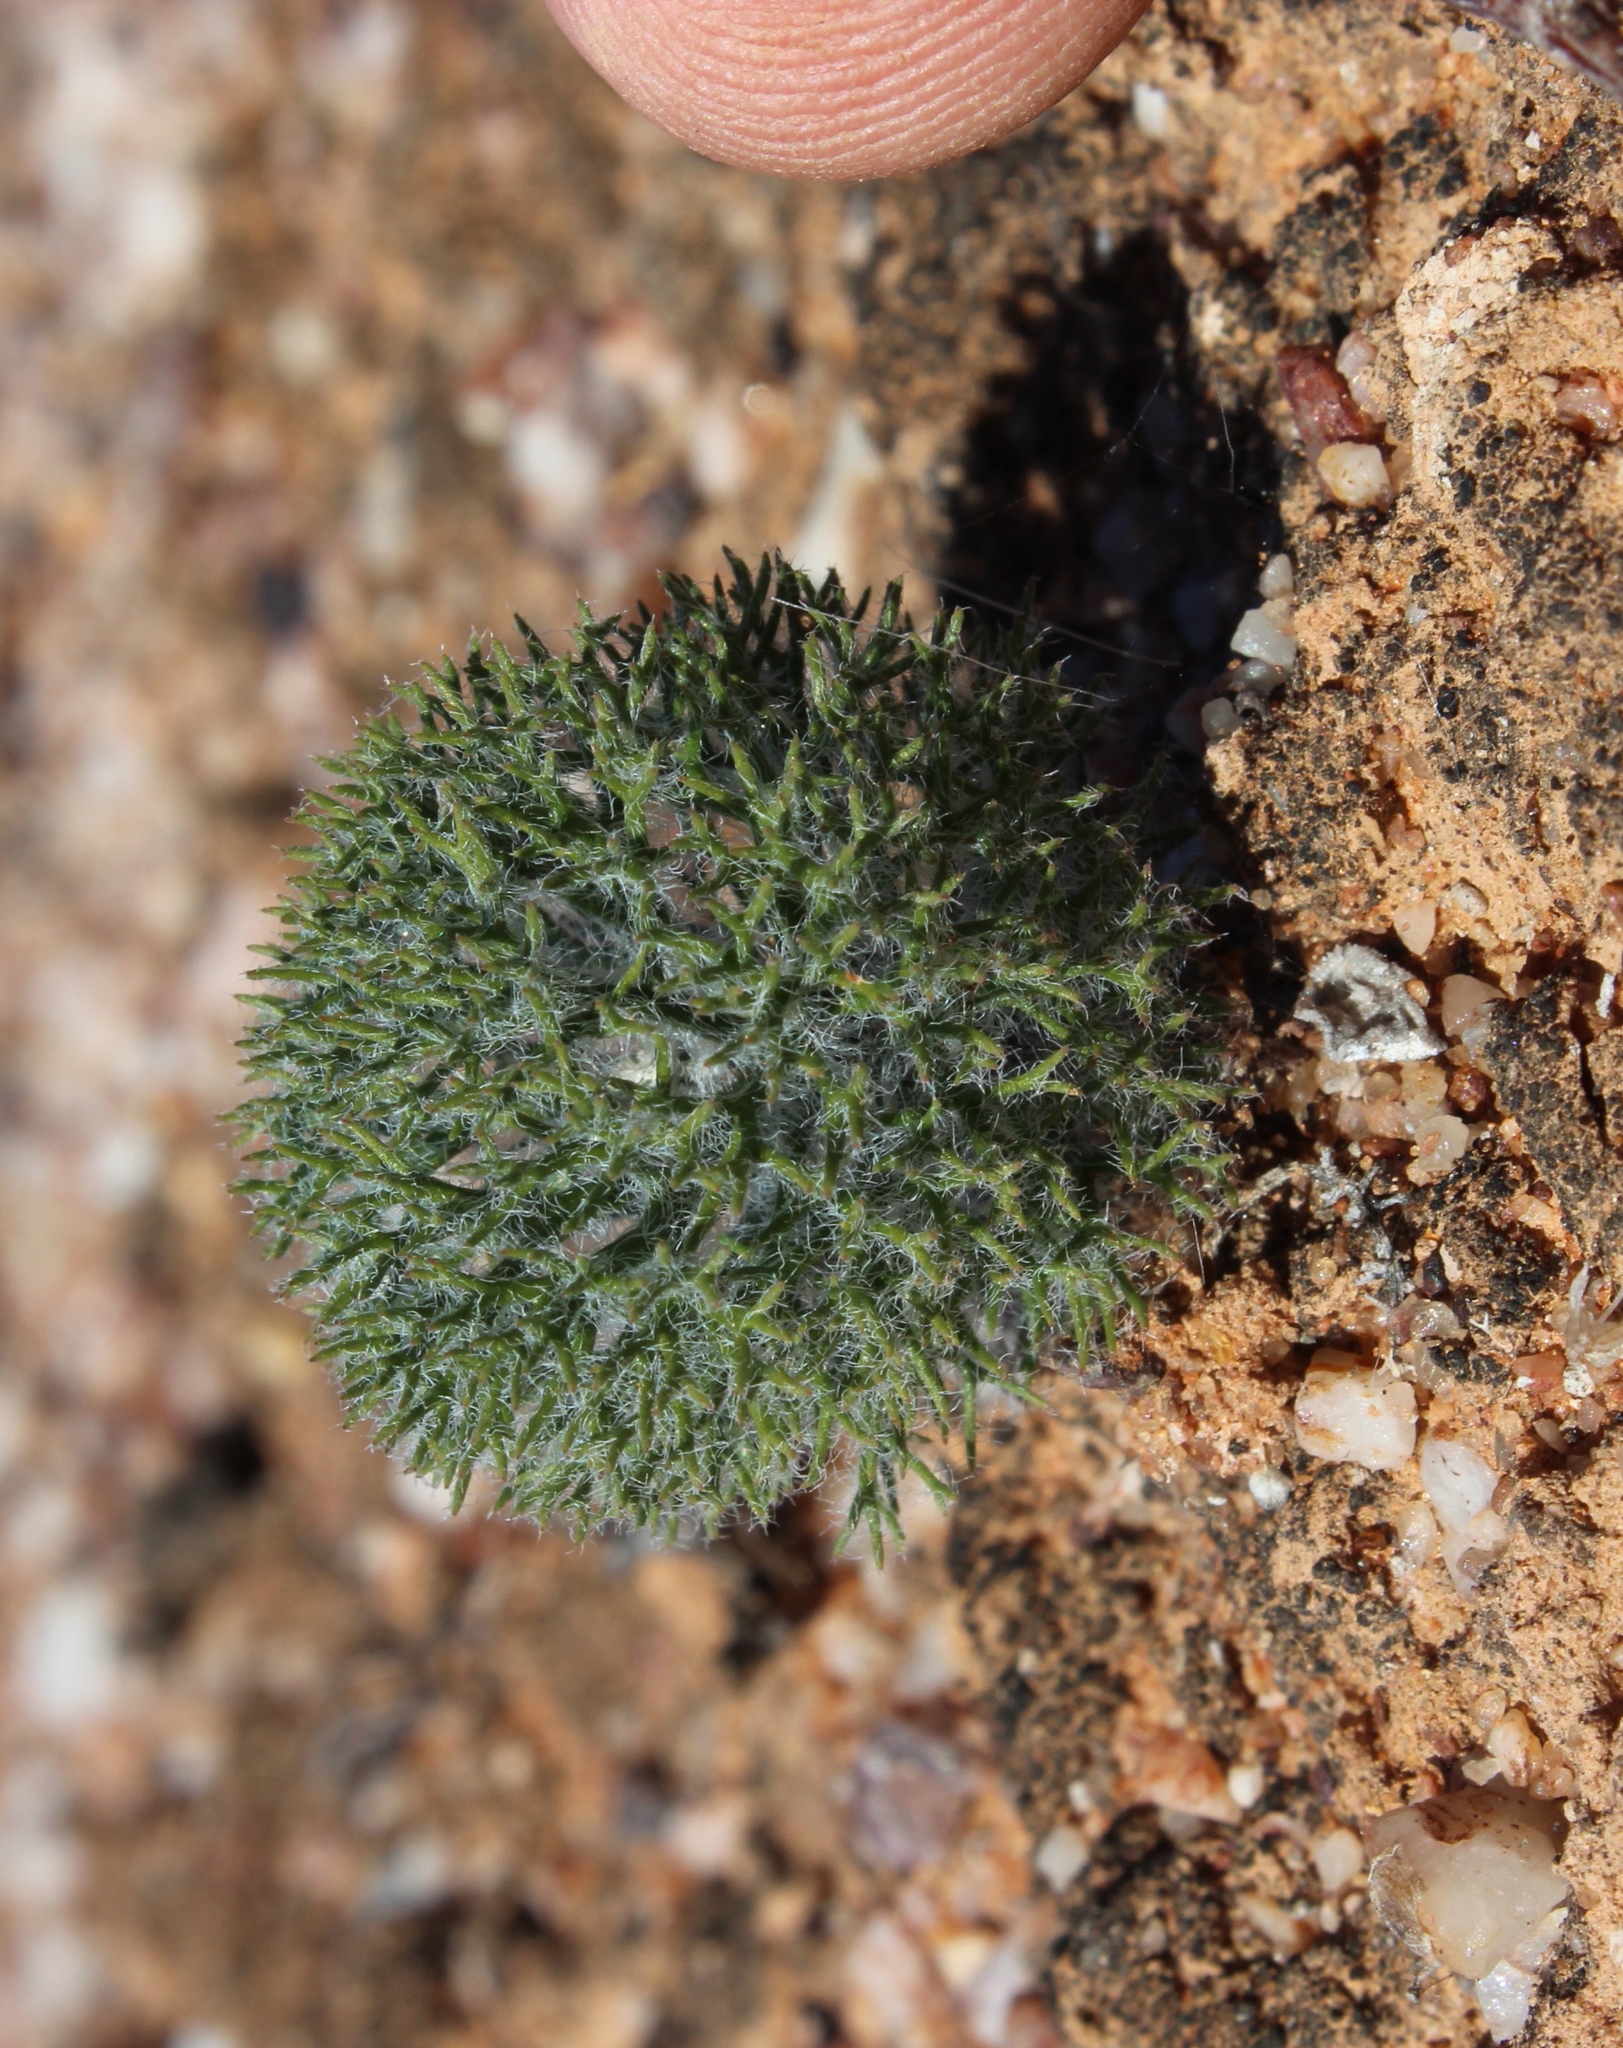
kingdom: Plantae
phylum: Tracheophyta
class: Liliopsida
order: Asparagales
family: Asparagaceae
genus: Eriospermum
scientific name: Eriospermum paradoxum
